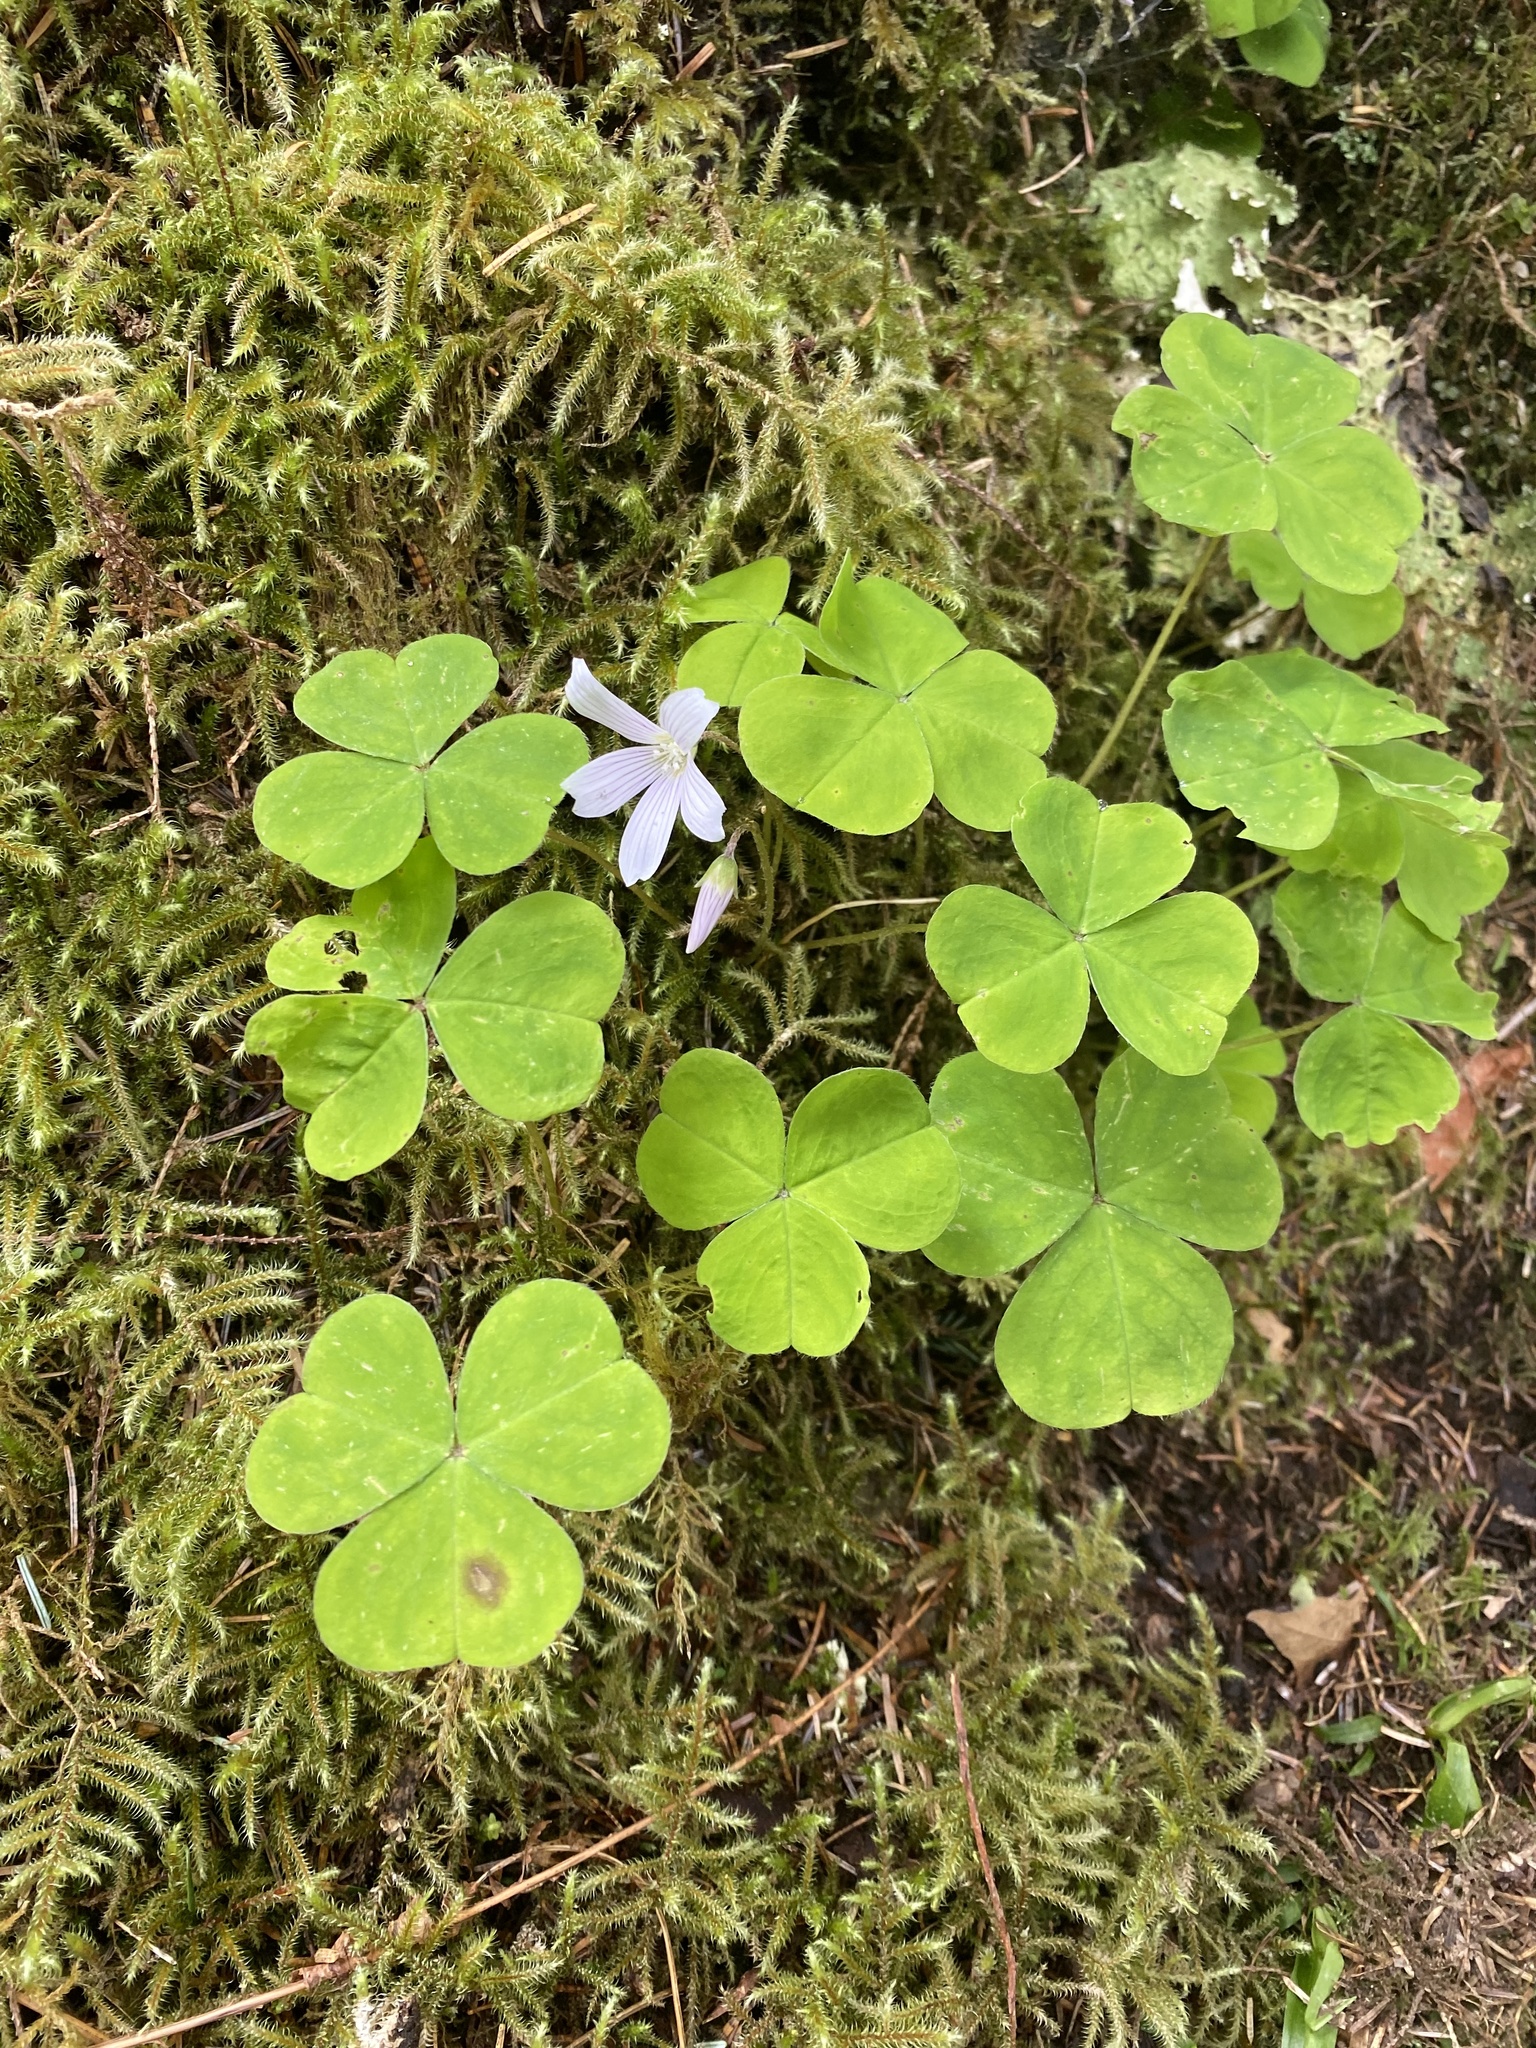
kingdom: Plantae
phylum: Tracheophyta
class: Magnoliopsida
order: Oxalidales
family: Oxalidaceae
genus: Oxalis
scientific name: Oxalis oregana
